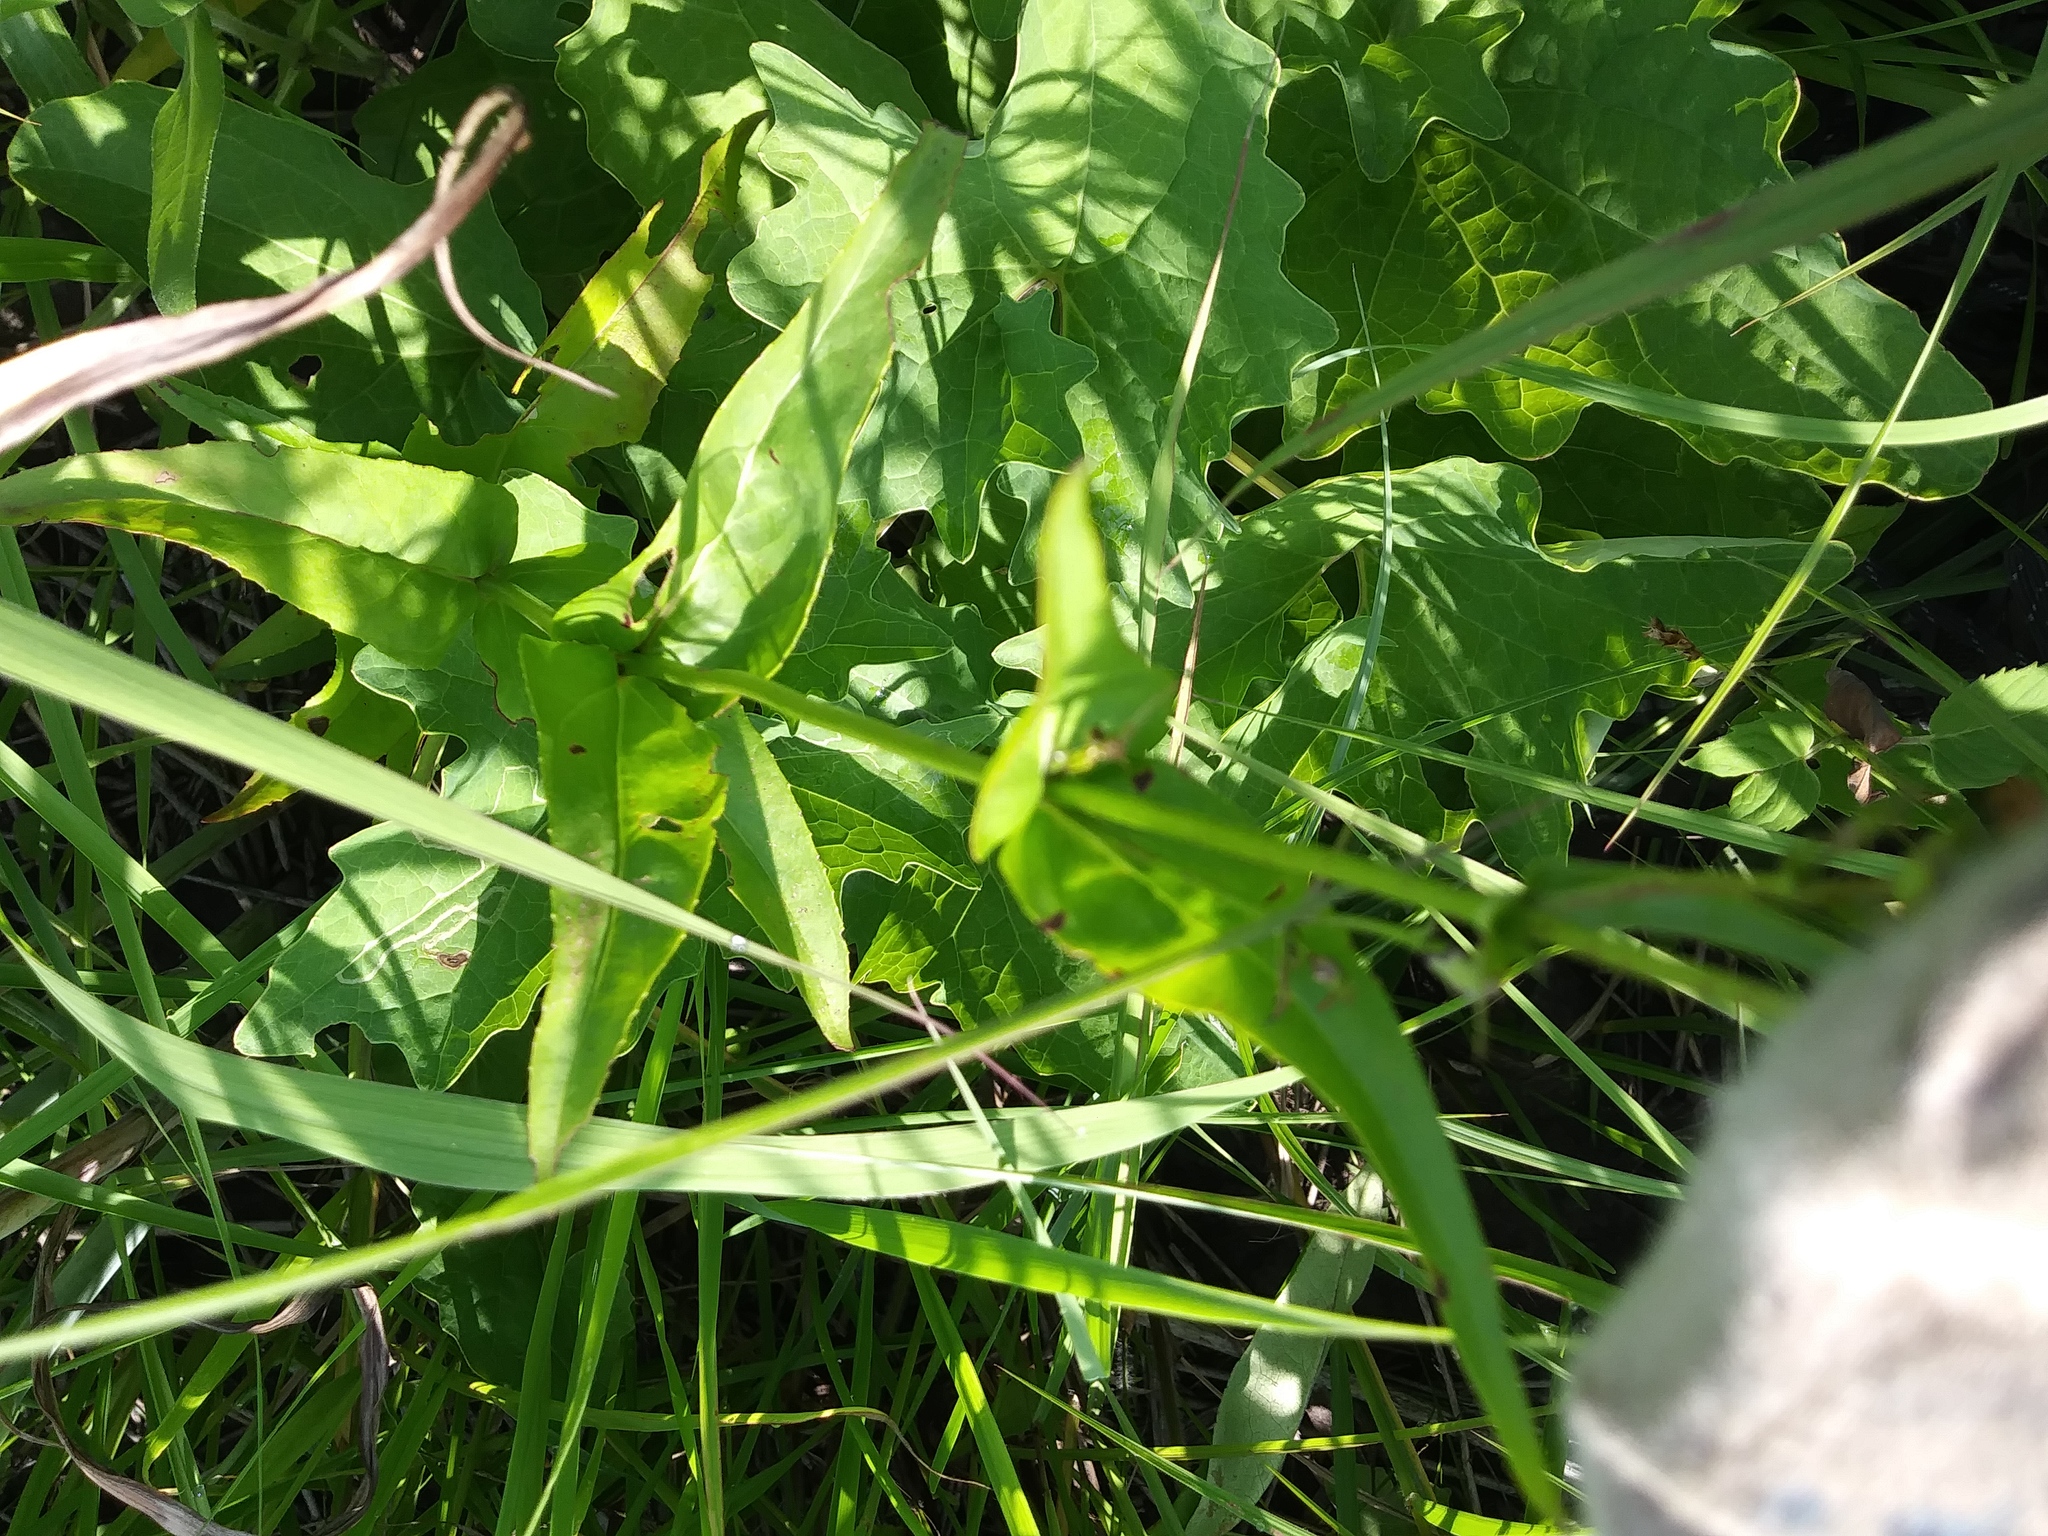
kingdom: Plantae
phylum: Tracheophyta
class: Magnoliopsida
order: Lamiales
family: Plantaginaceae
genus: Penstemon
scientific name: Penstemon digitalis
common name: Foxglove beardtongue
